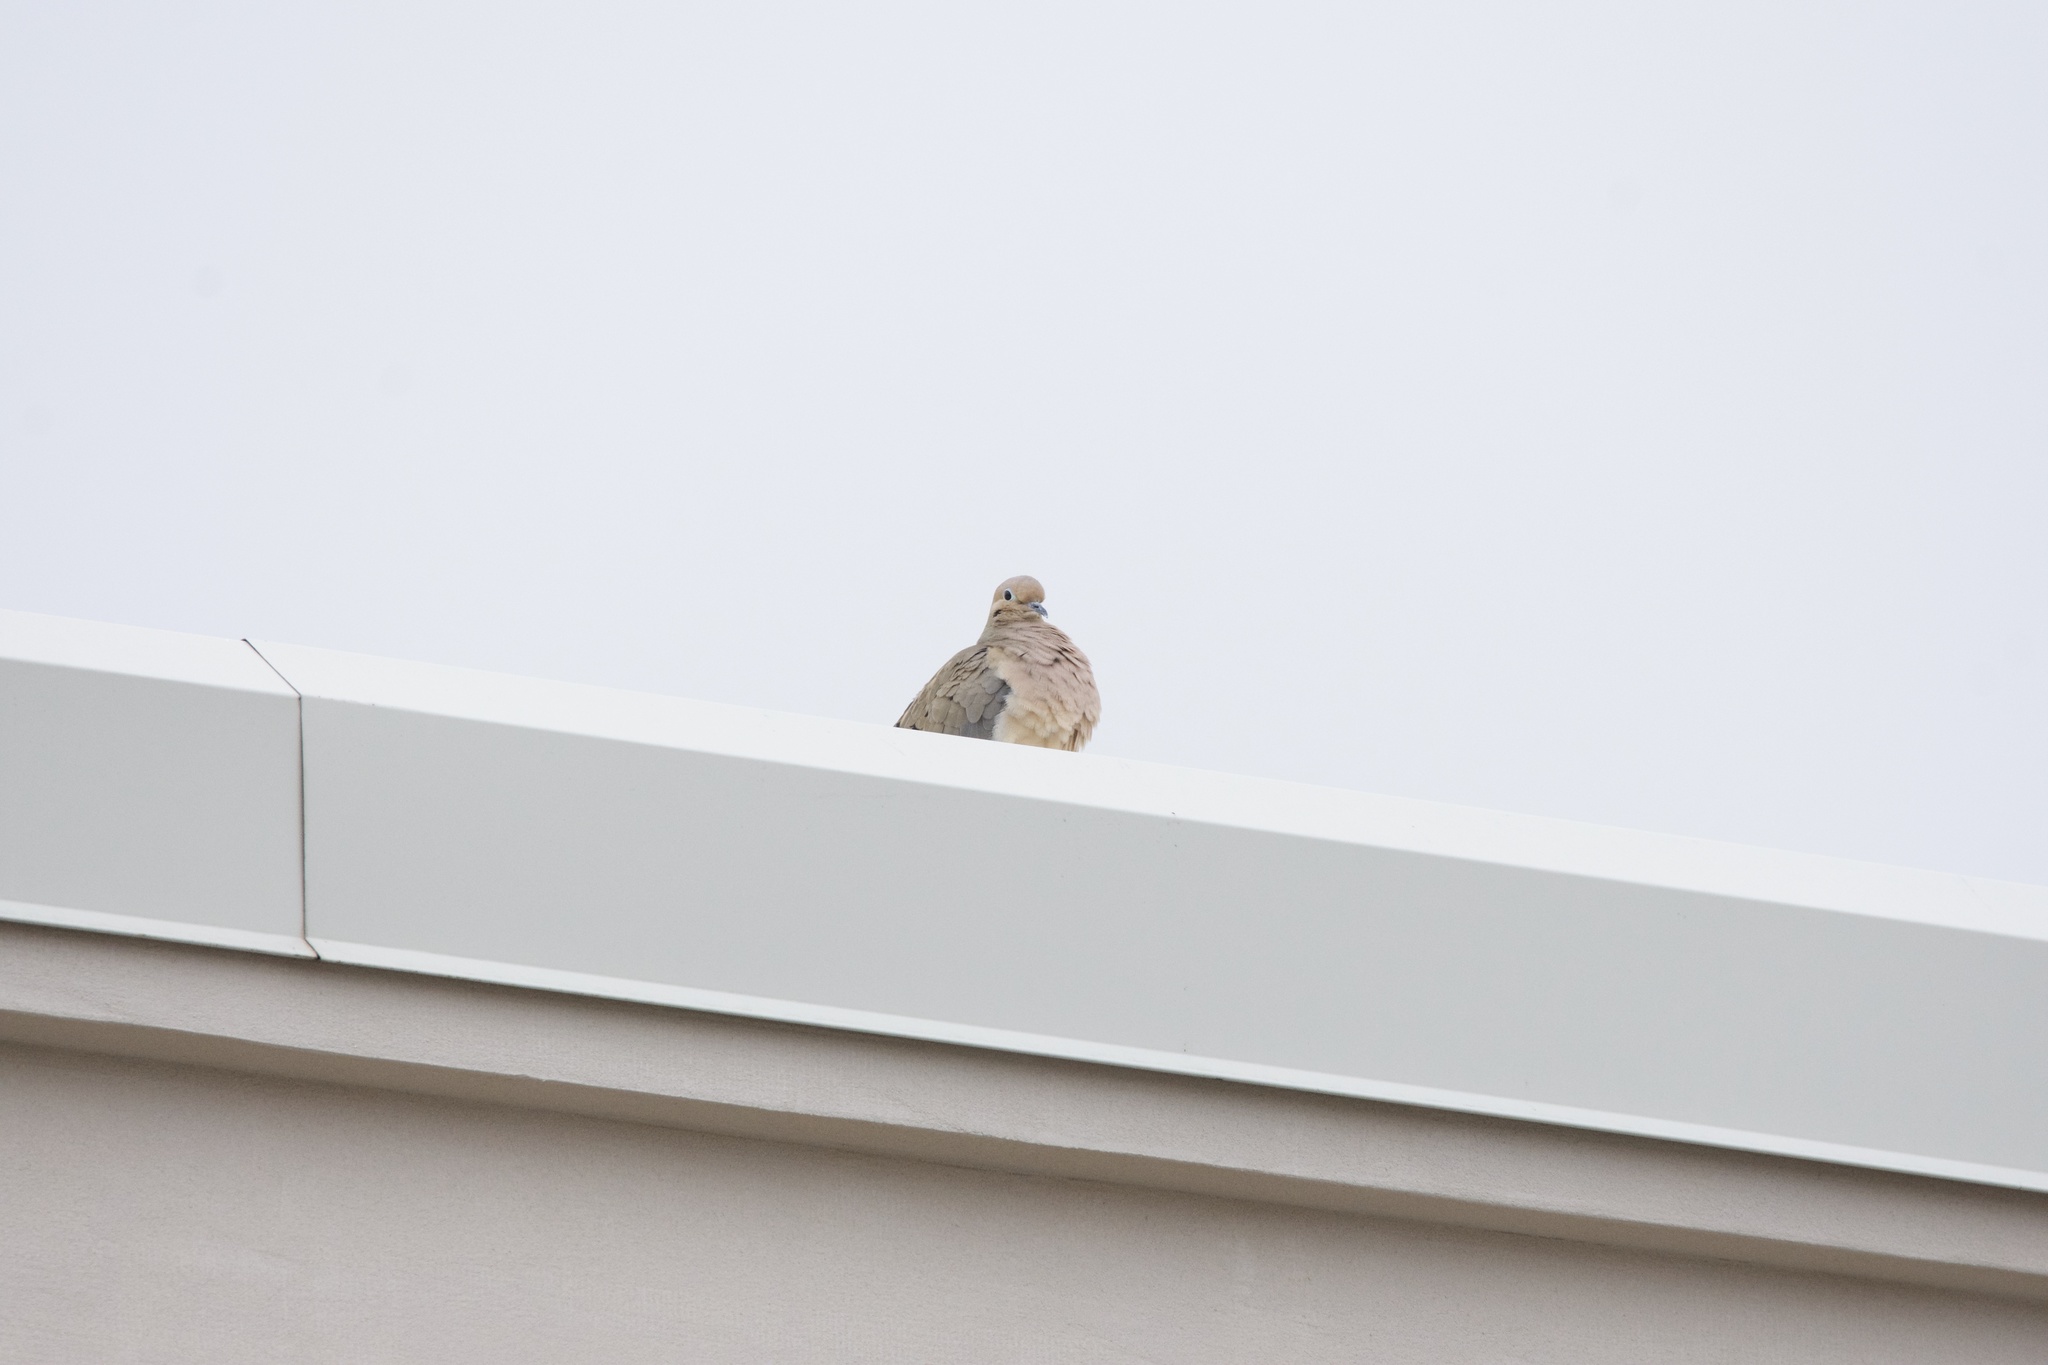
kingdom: Animalia
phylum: Chordata
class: Aves
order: Columbiformes
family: Columbidae
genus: Zenaida
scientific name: Zenaida macroura
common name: Mourning dove
